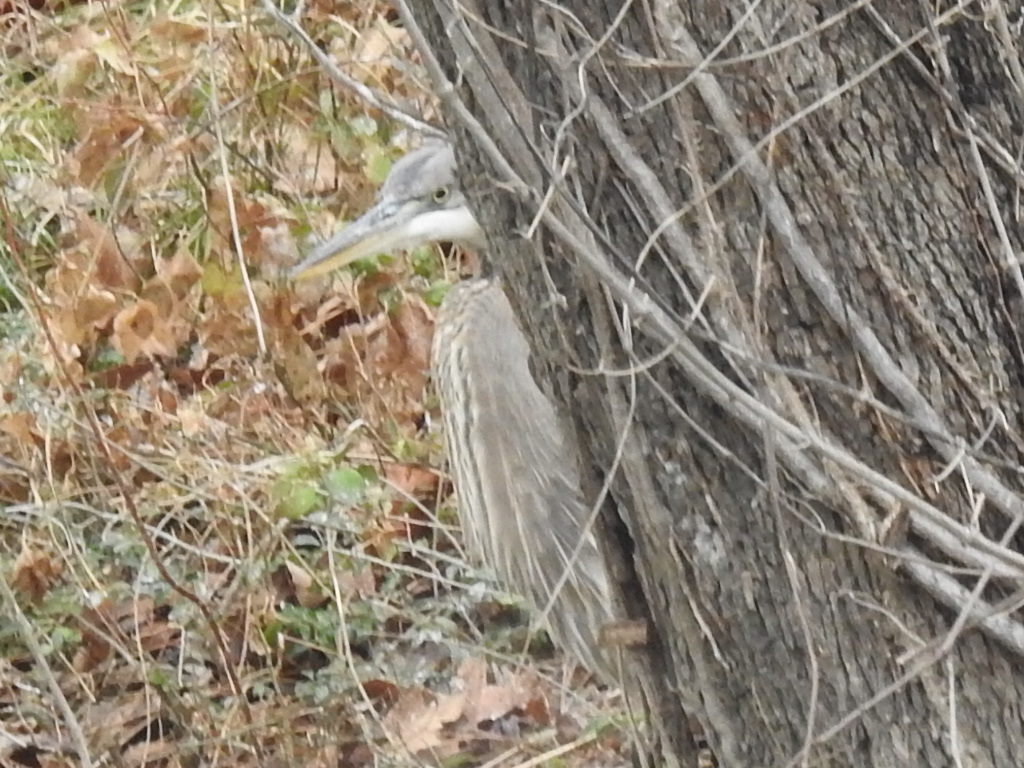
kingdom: Animalia
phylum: Chordata
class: Aves
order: Pelecaniformes
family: Ardeidae
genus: Ardea
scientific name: Ardea herodias
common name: Great blue heron
